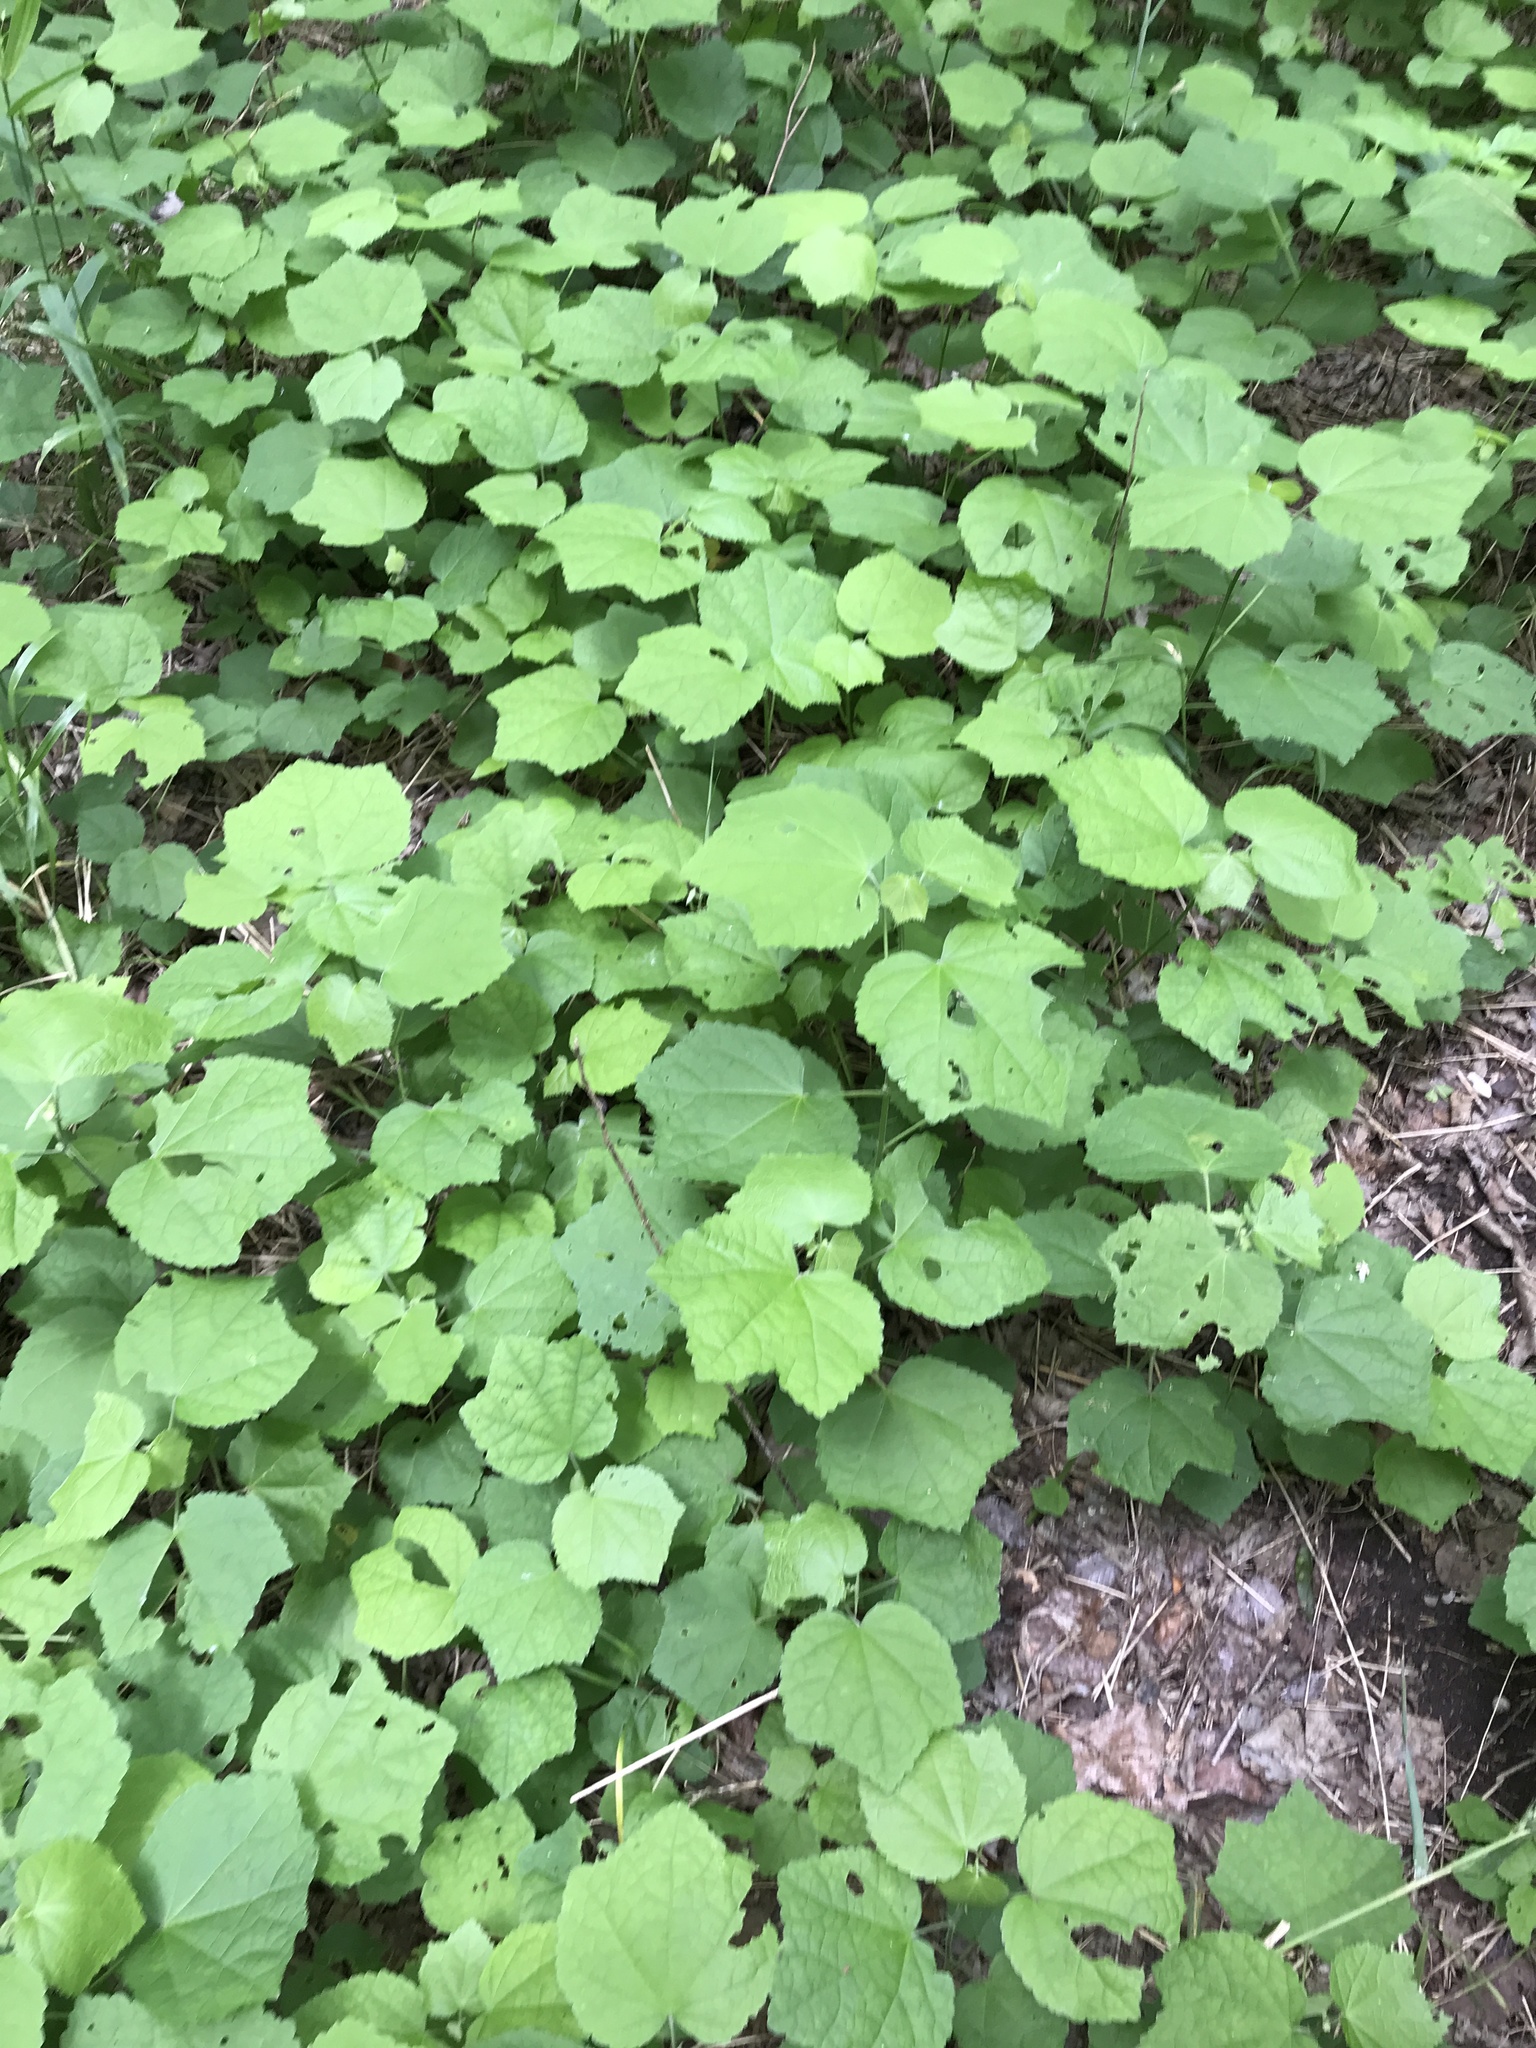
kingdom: Plantae
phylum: Tracheophyta
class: Magnoliopsida
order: Malvales
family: Malvaceae
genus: Malvaviscus
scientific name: Malvaviscus arboreus
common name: Wax mallow
